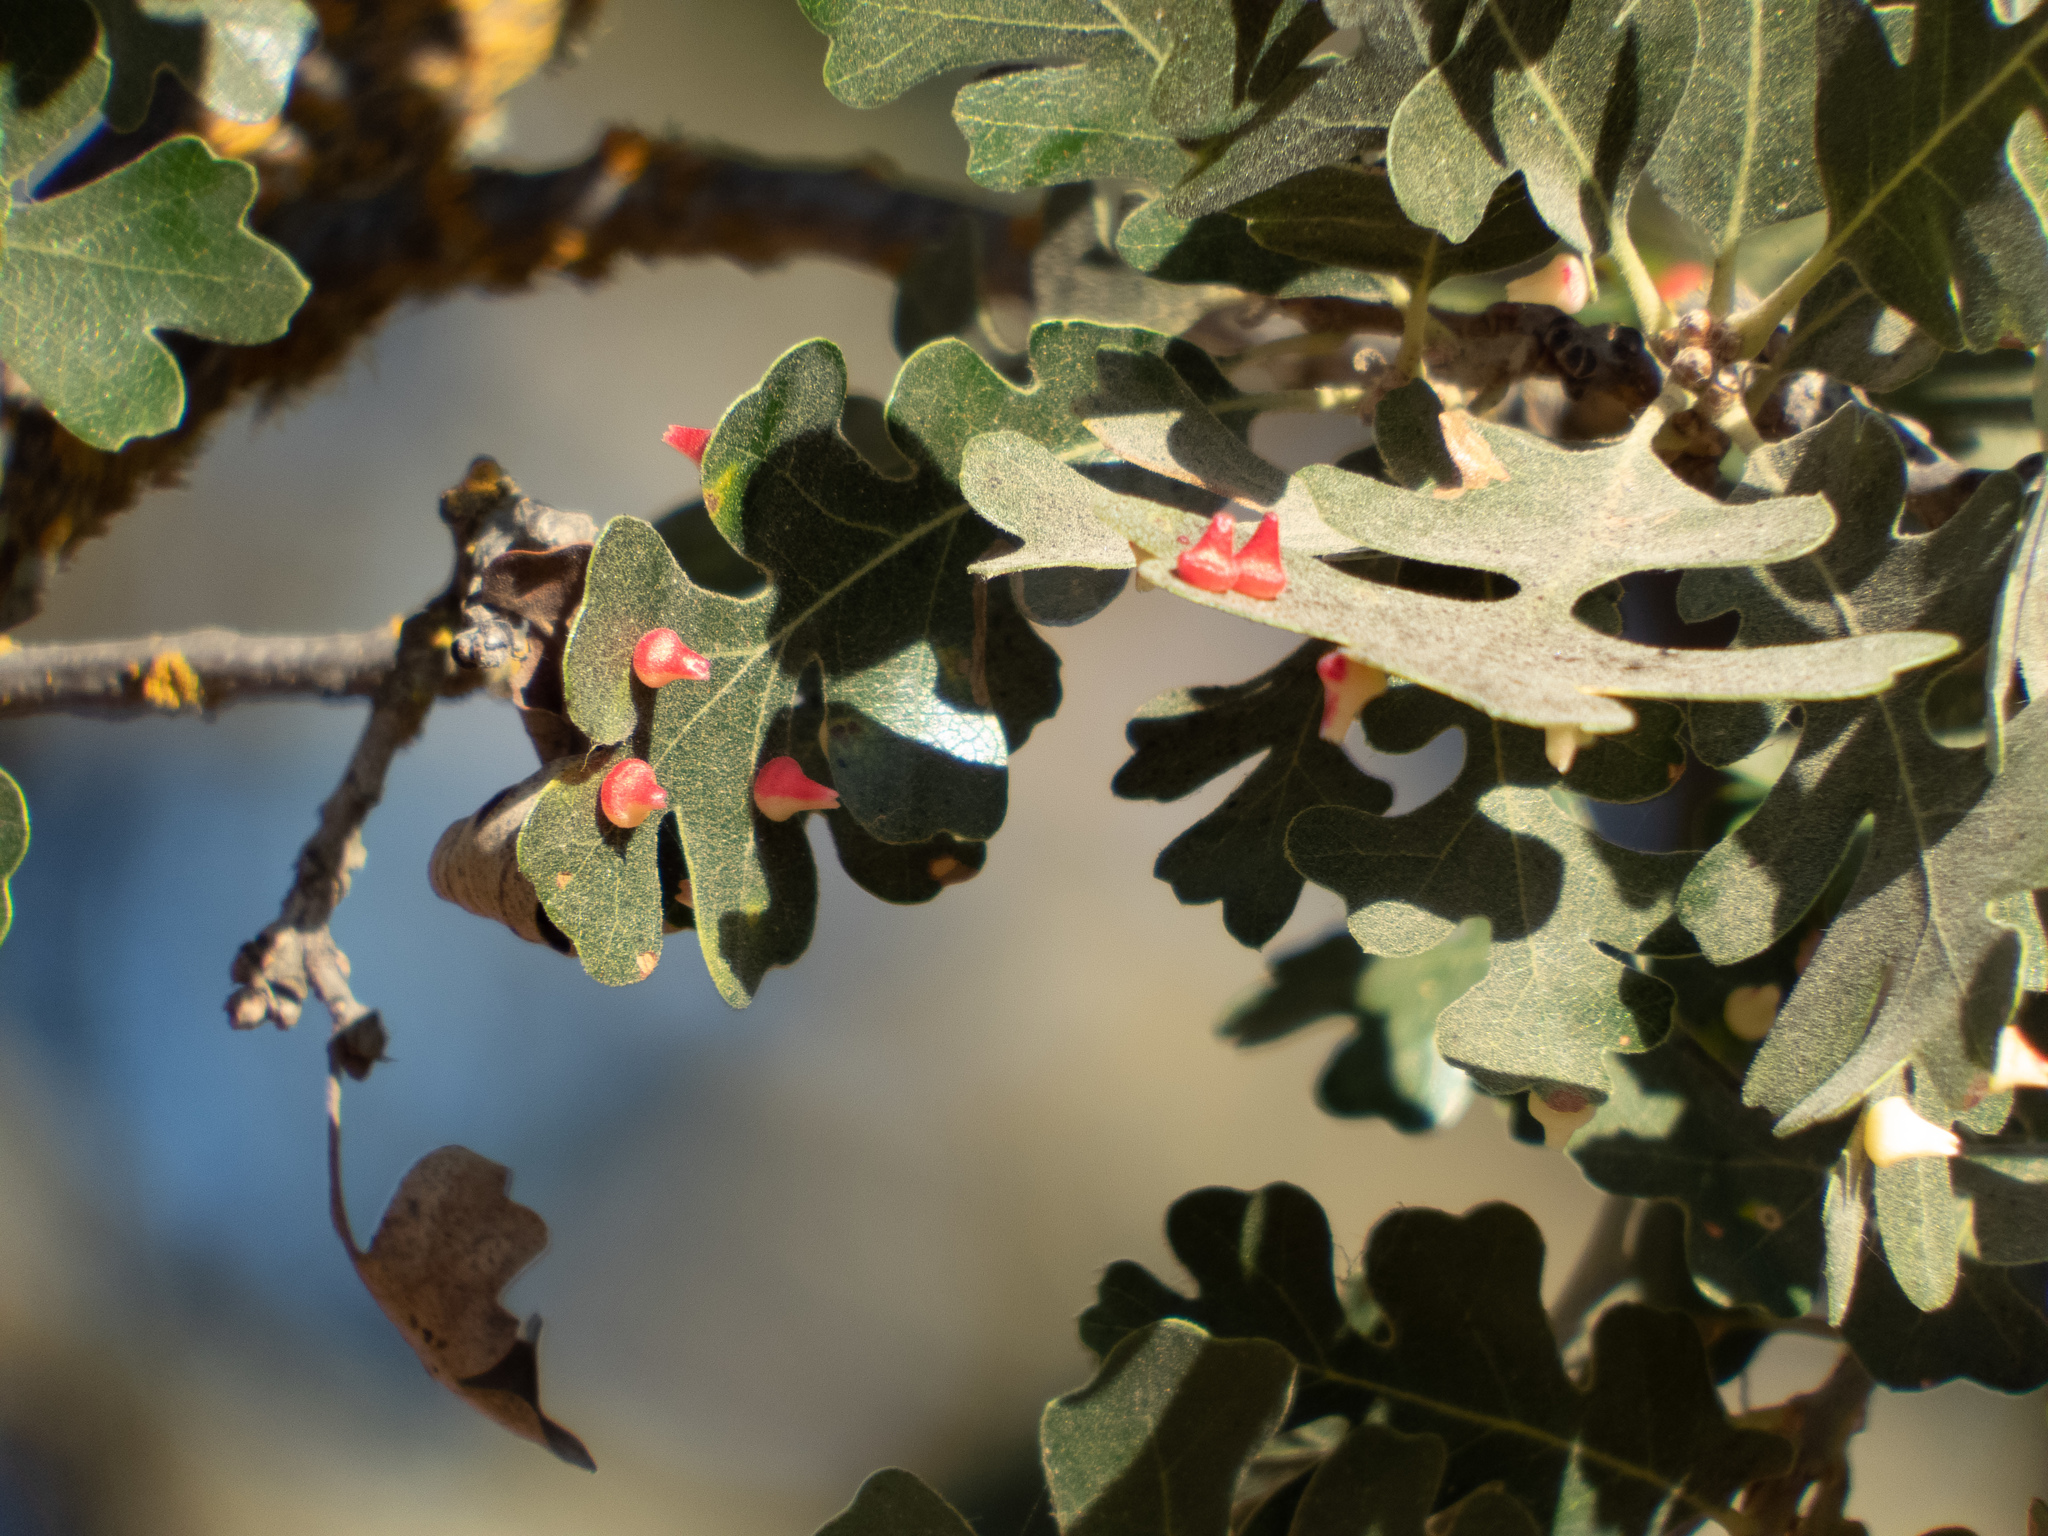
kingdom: Animalia
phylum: Arthropoda
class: Insecta
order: Hymenoptera
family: Cynipidae
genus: Andricus
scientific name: Andricus
